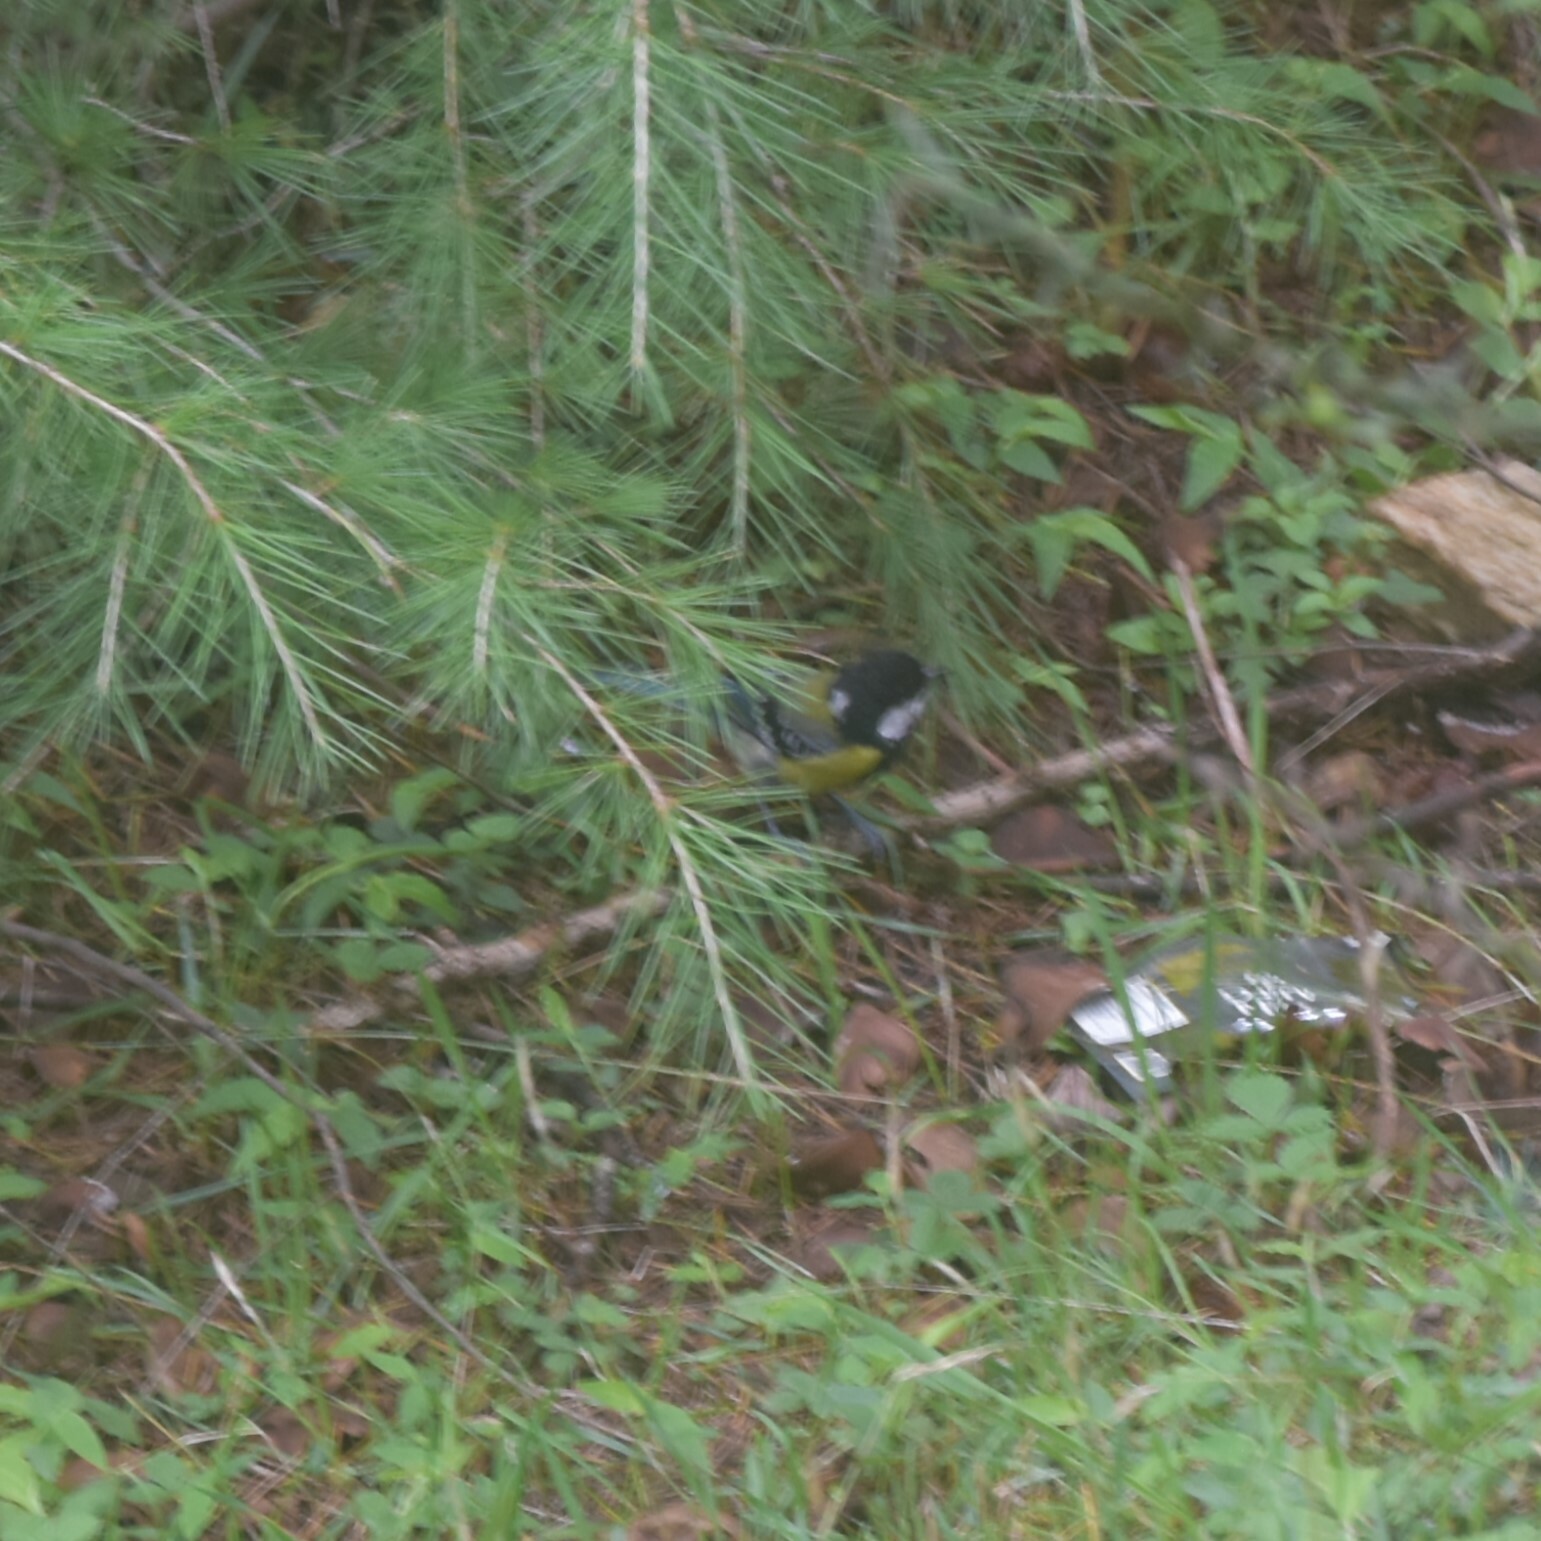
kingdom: Animalia
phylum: Chordata
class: Aves
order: Passeriformes
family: Paridae
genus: Parus
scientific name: Parus monticolus
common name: Green-backed tit
